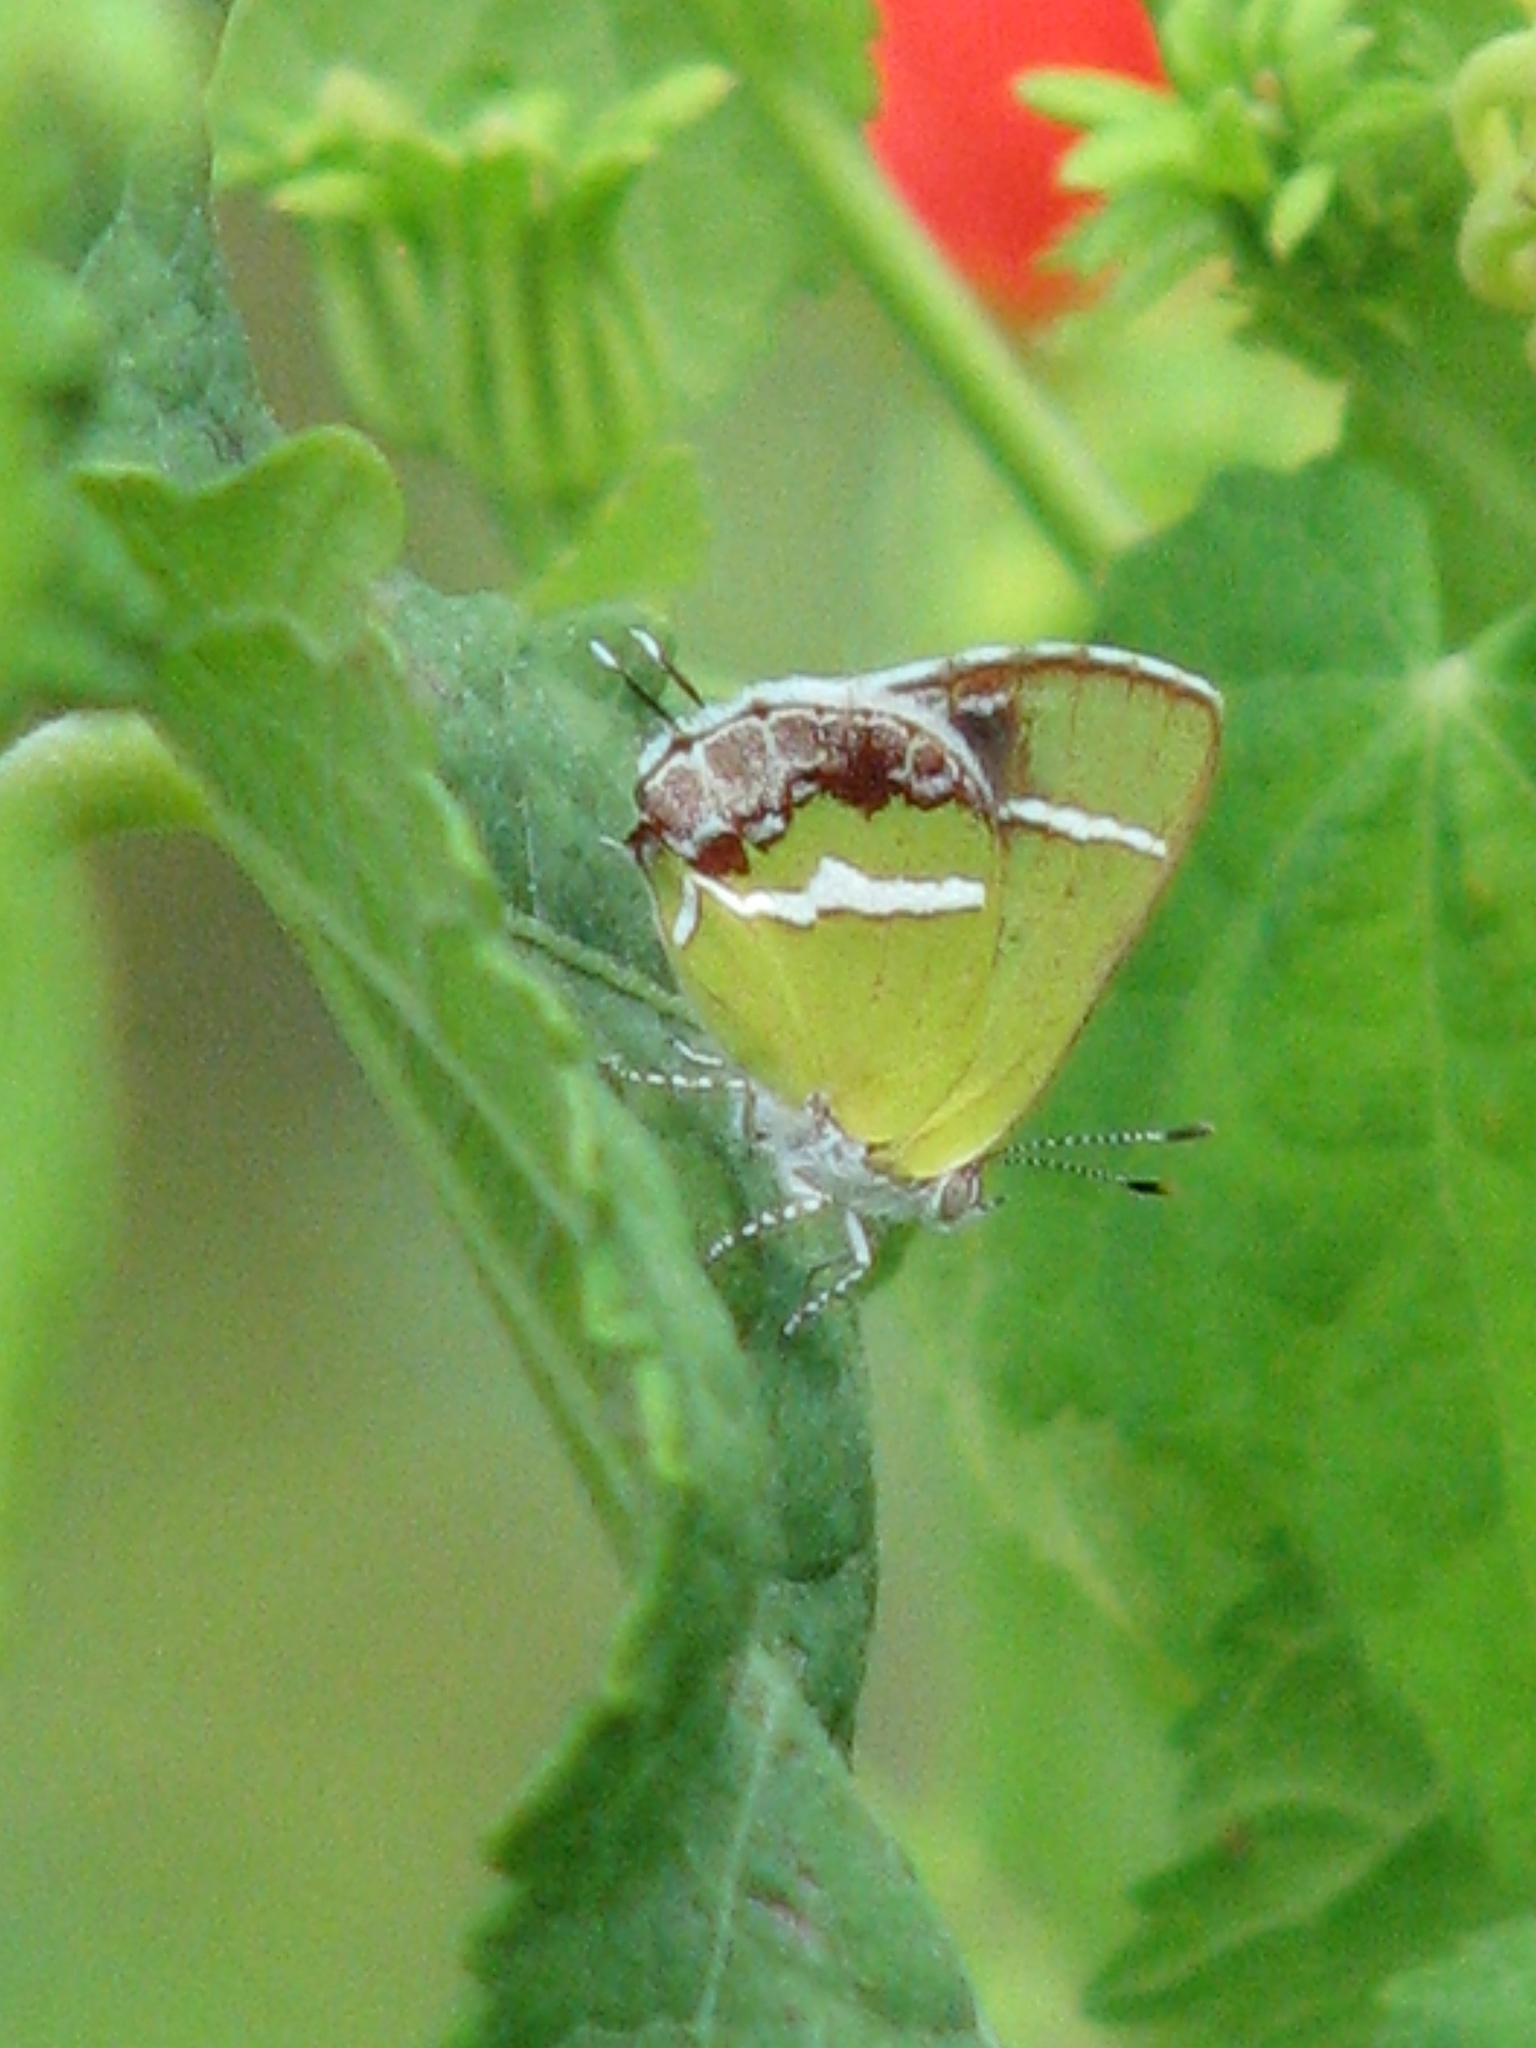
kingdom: Animalia
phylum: Arthropoda
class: Insecta
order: Lepidoptera
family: Lycaenidae
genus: Chlorostrymon
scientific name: Chlorostrymon simaethis
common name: Silver-banded hairstreak
